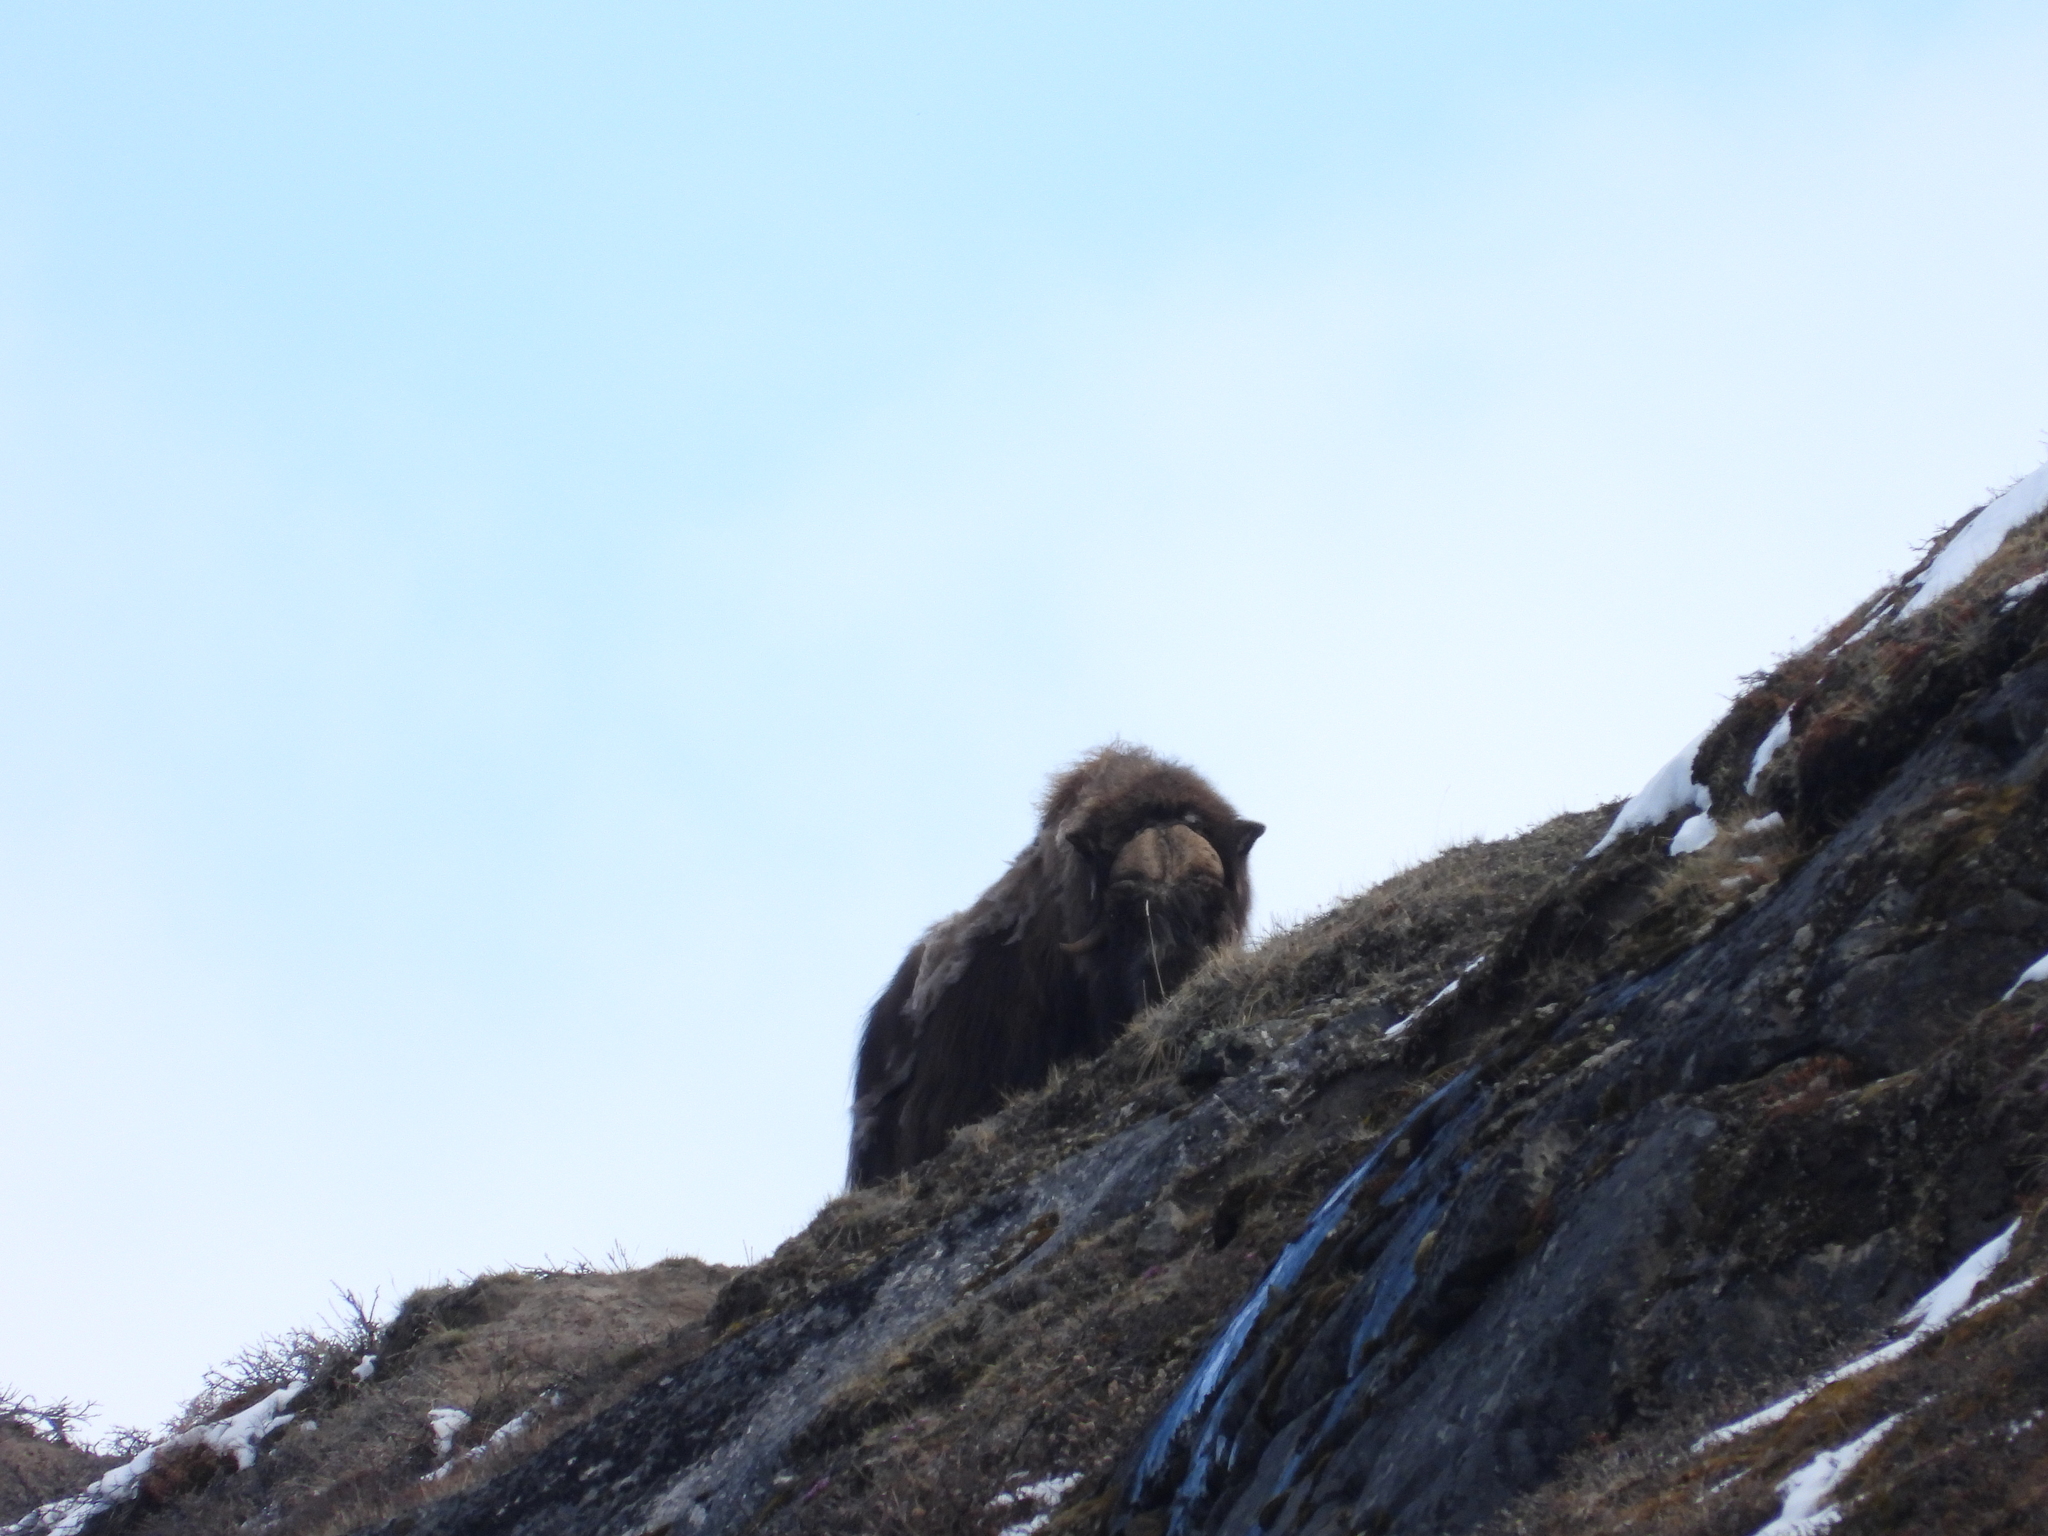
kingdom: Animalia
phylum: Chordata
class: Mammalia
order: Artiodactyla
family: Bovidae
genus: Ovibos
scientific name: Ovibos moschatus
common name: Muskox
